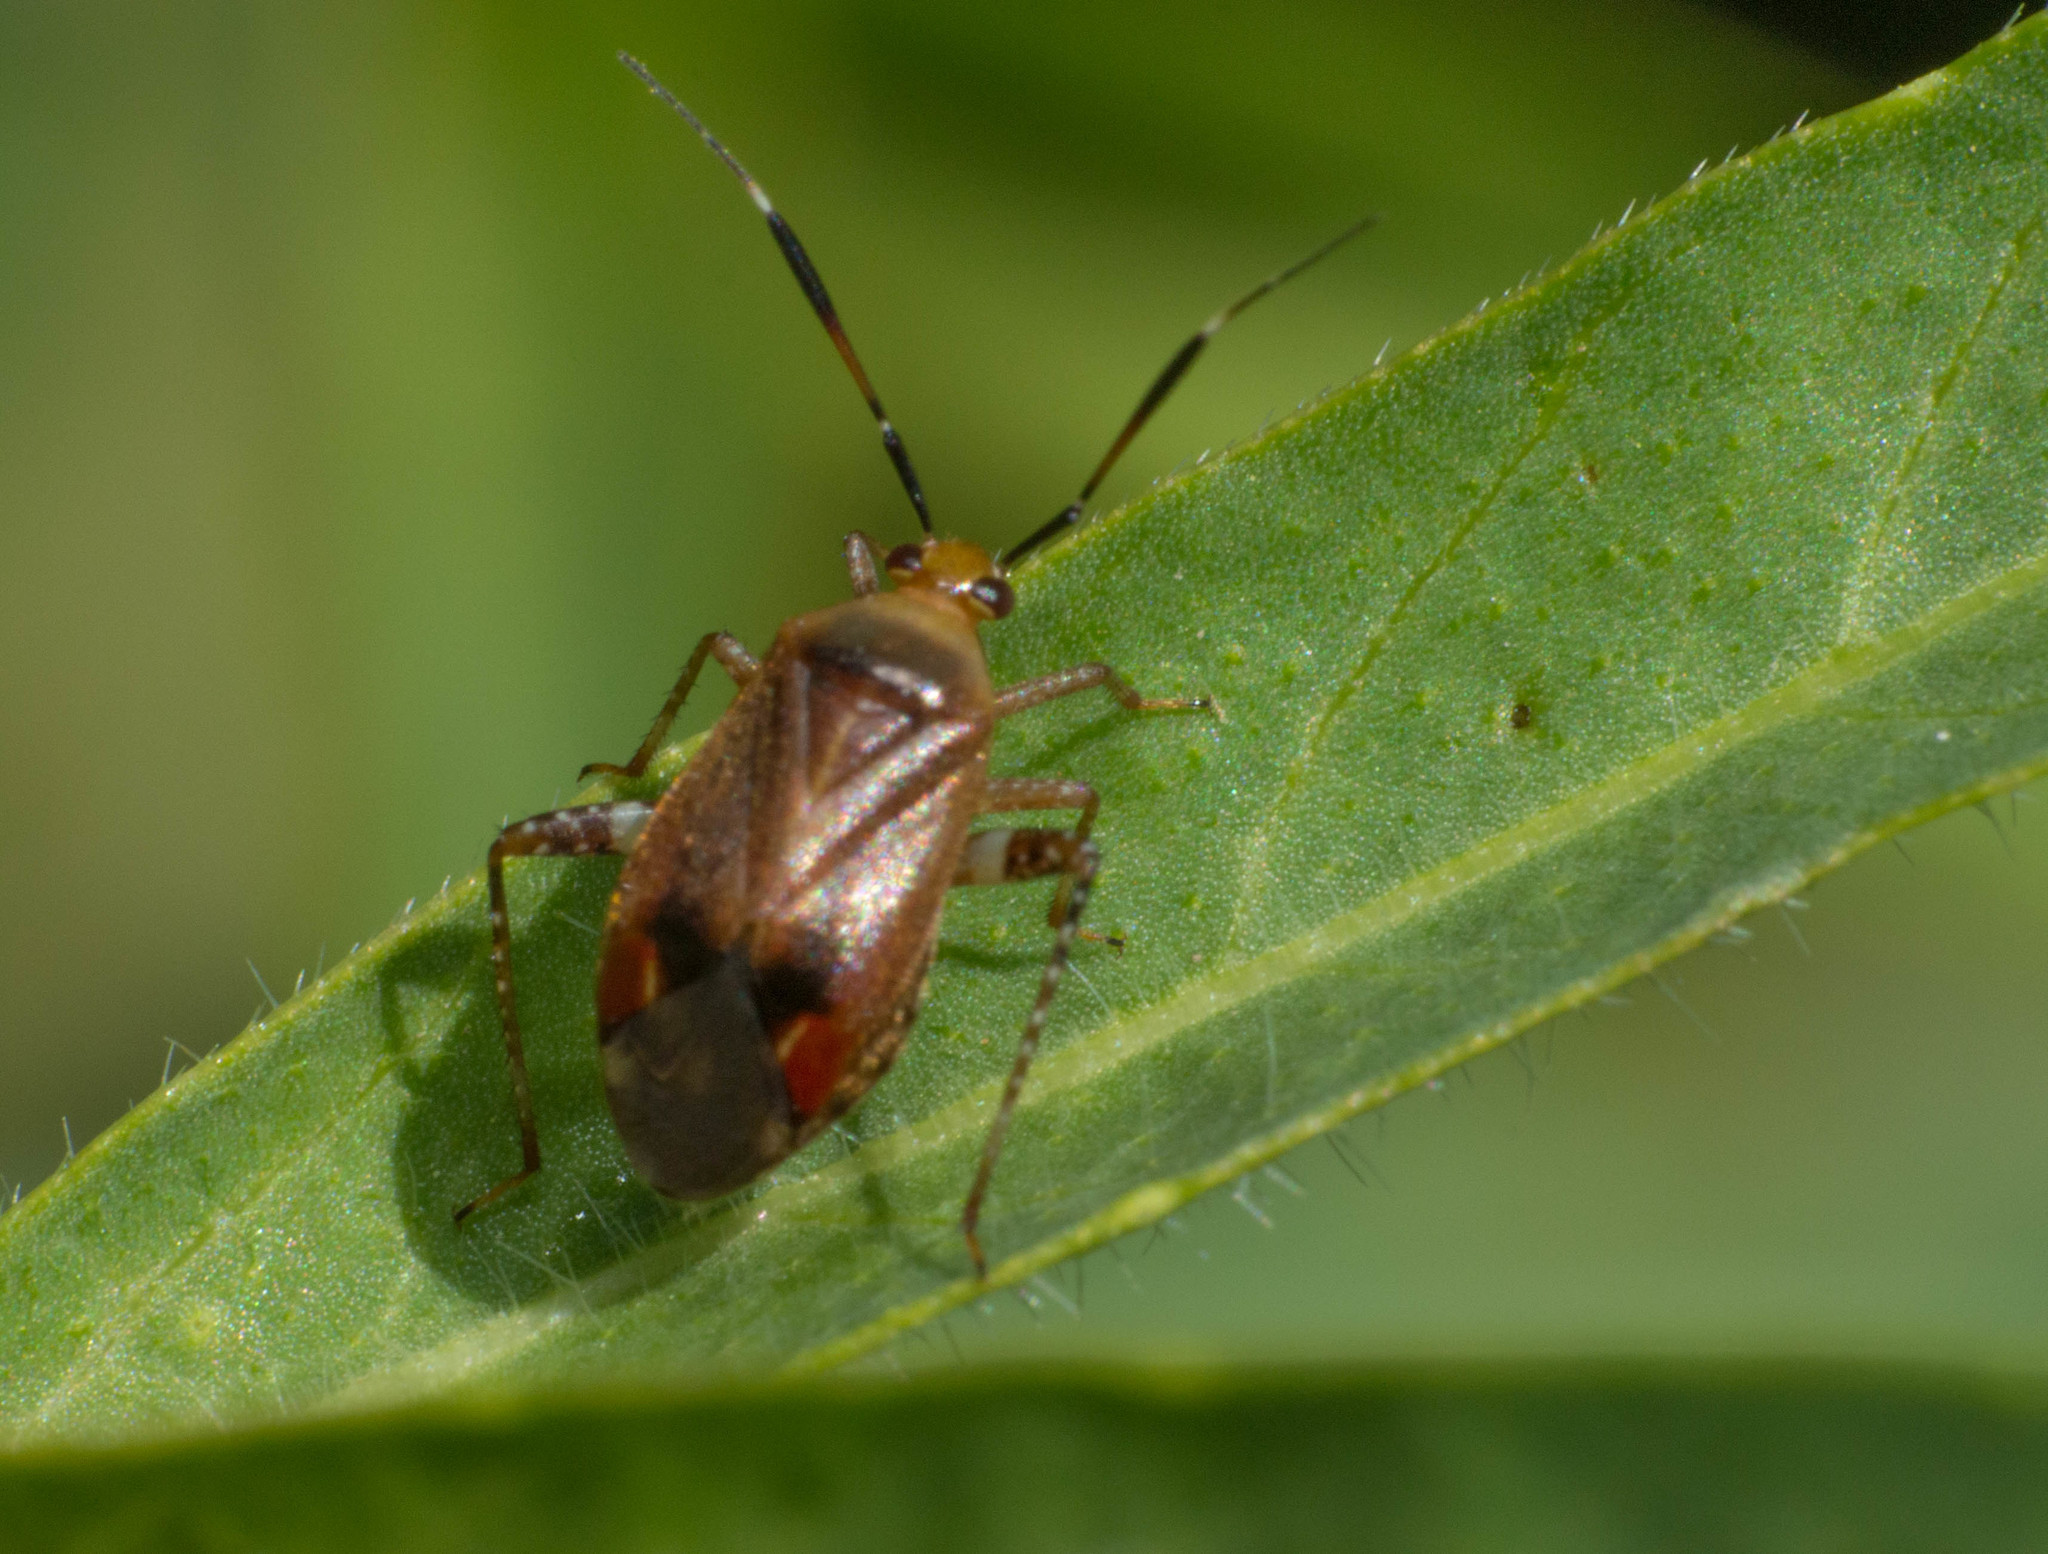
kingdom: Animalia
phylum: Arthropoda
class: Insecta
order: Hemiptera
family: Miridae
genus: Horciasinus
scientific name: Horciasinus argentinus
